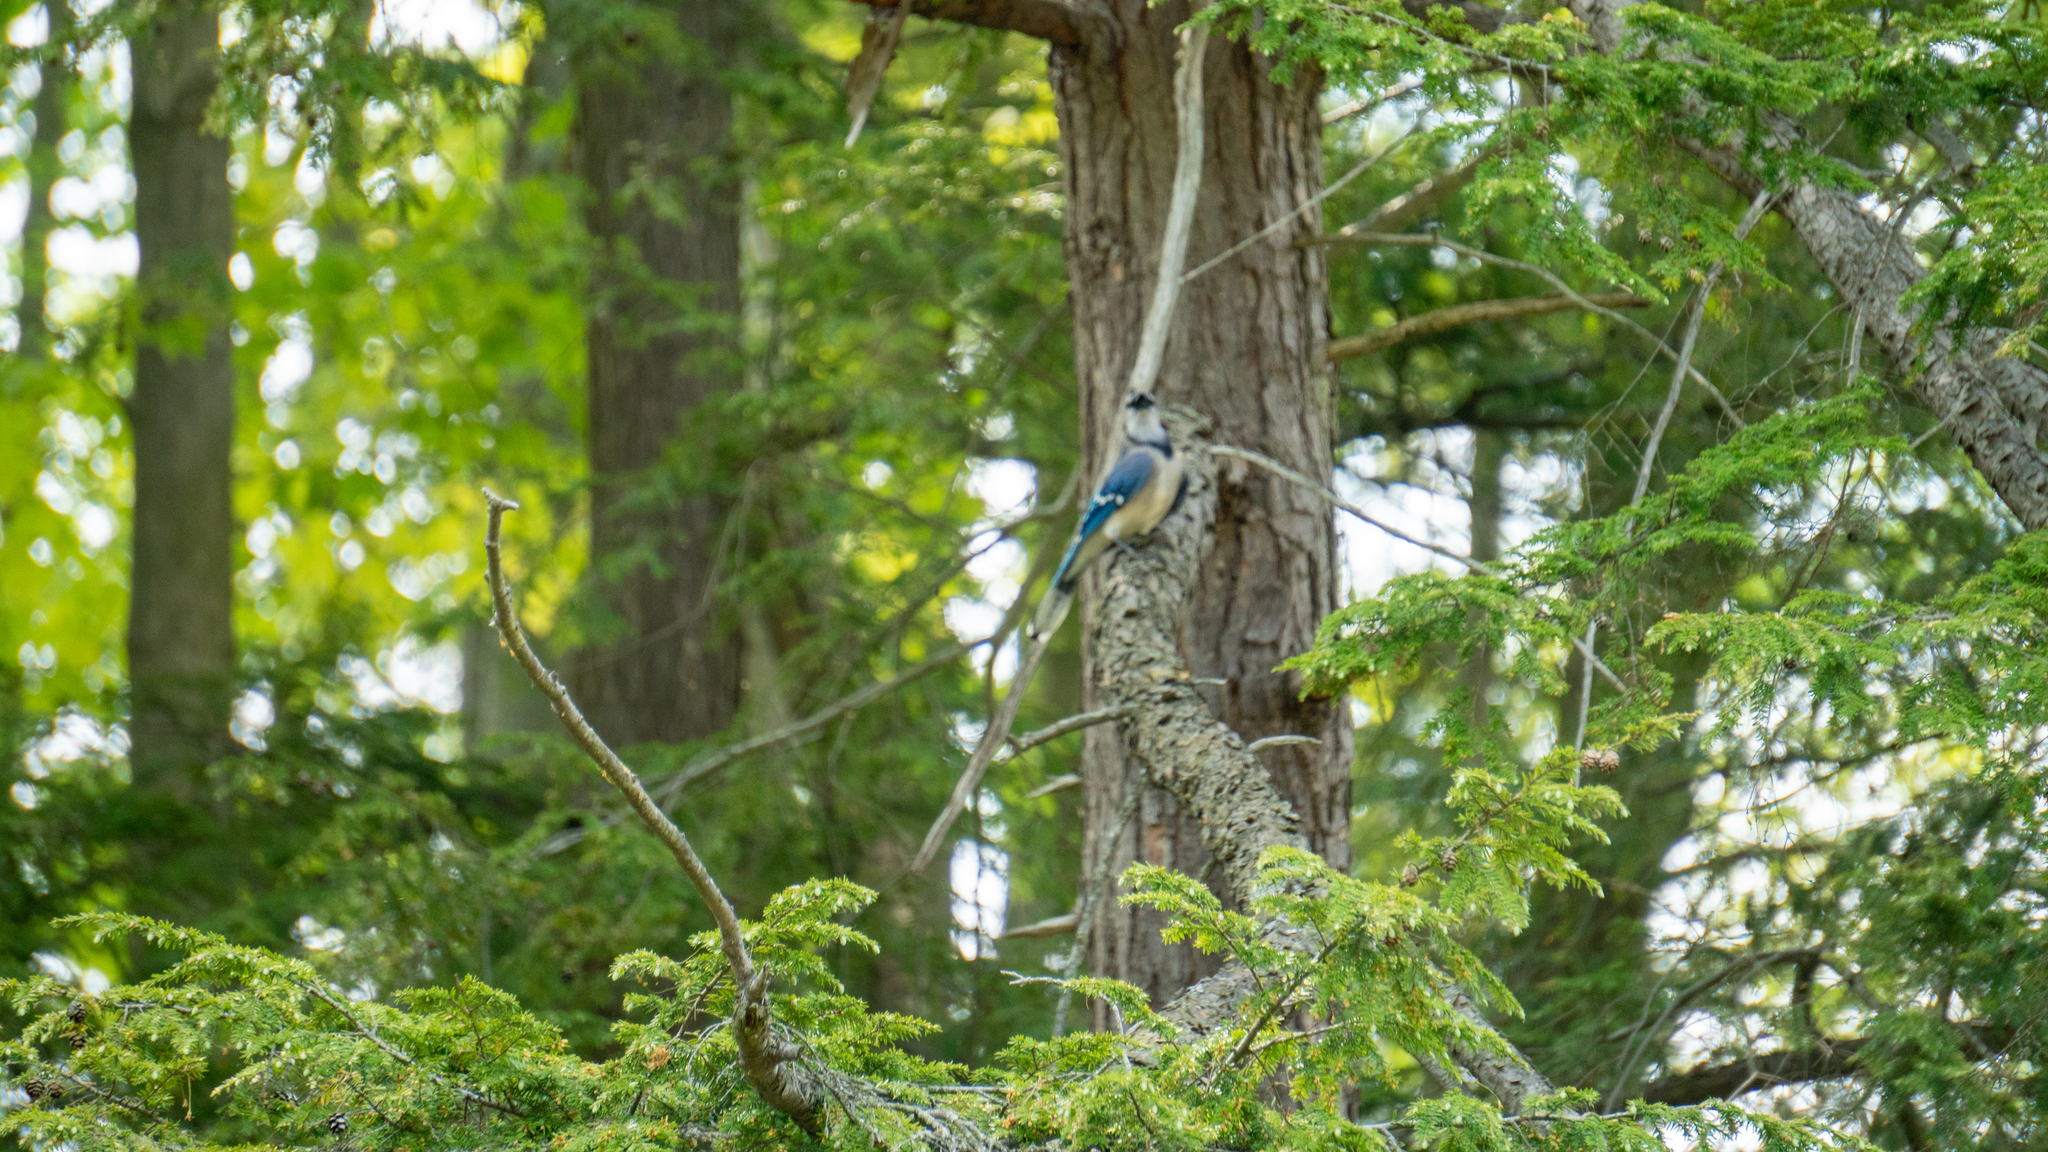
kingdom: Plantae
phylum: Tracheophyta
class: Pinopsida
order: Pinales
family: Pinaceae
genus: Tsuga
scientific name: Tsuga canadensis
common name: Eastern hemlock
